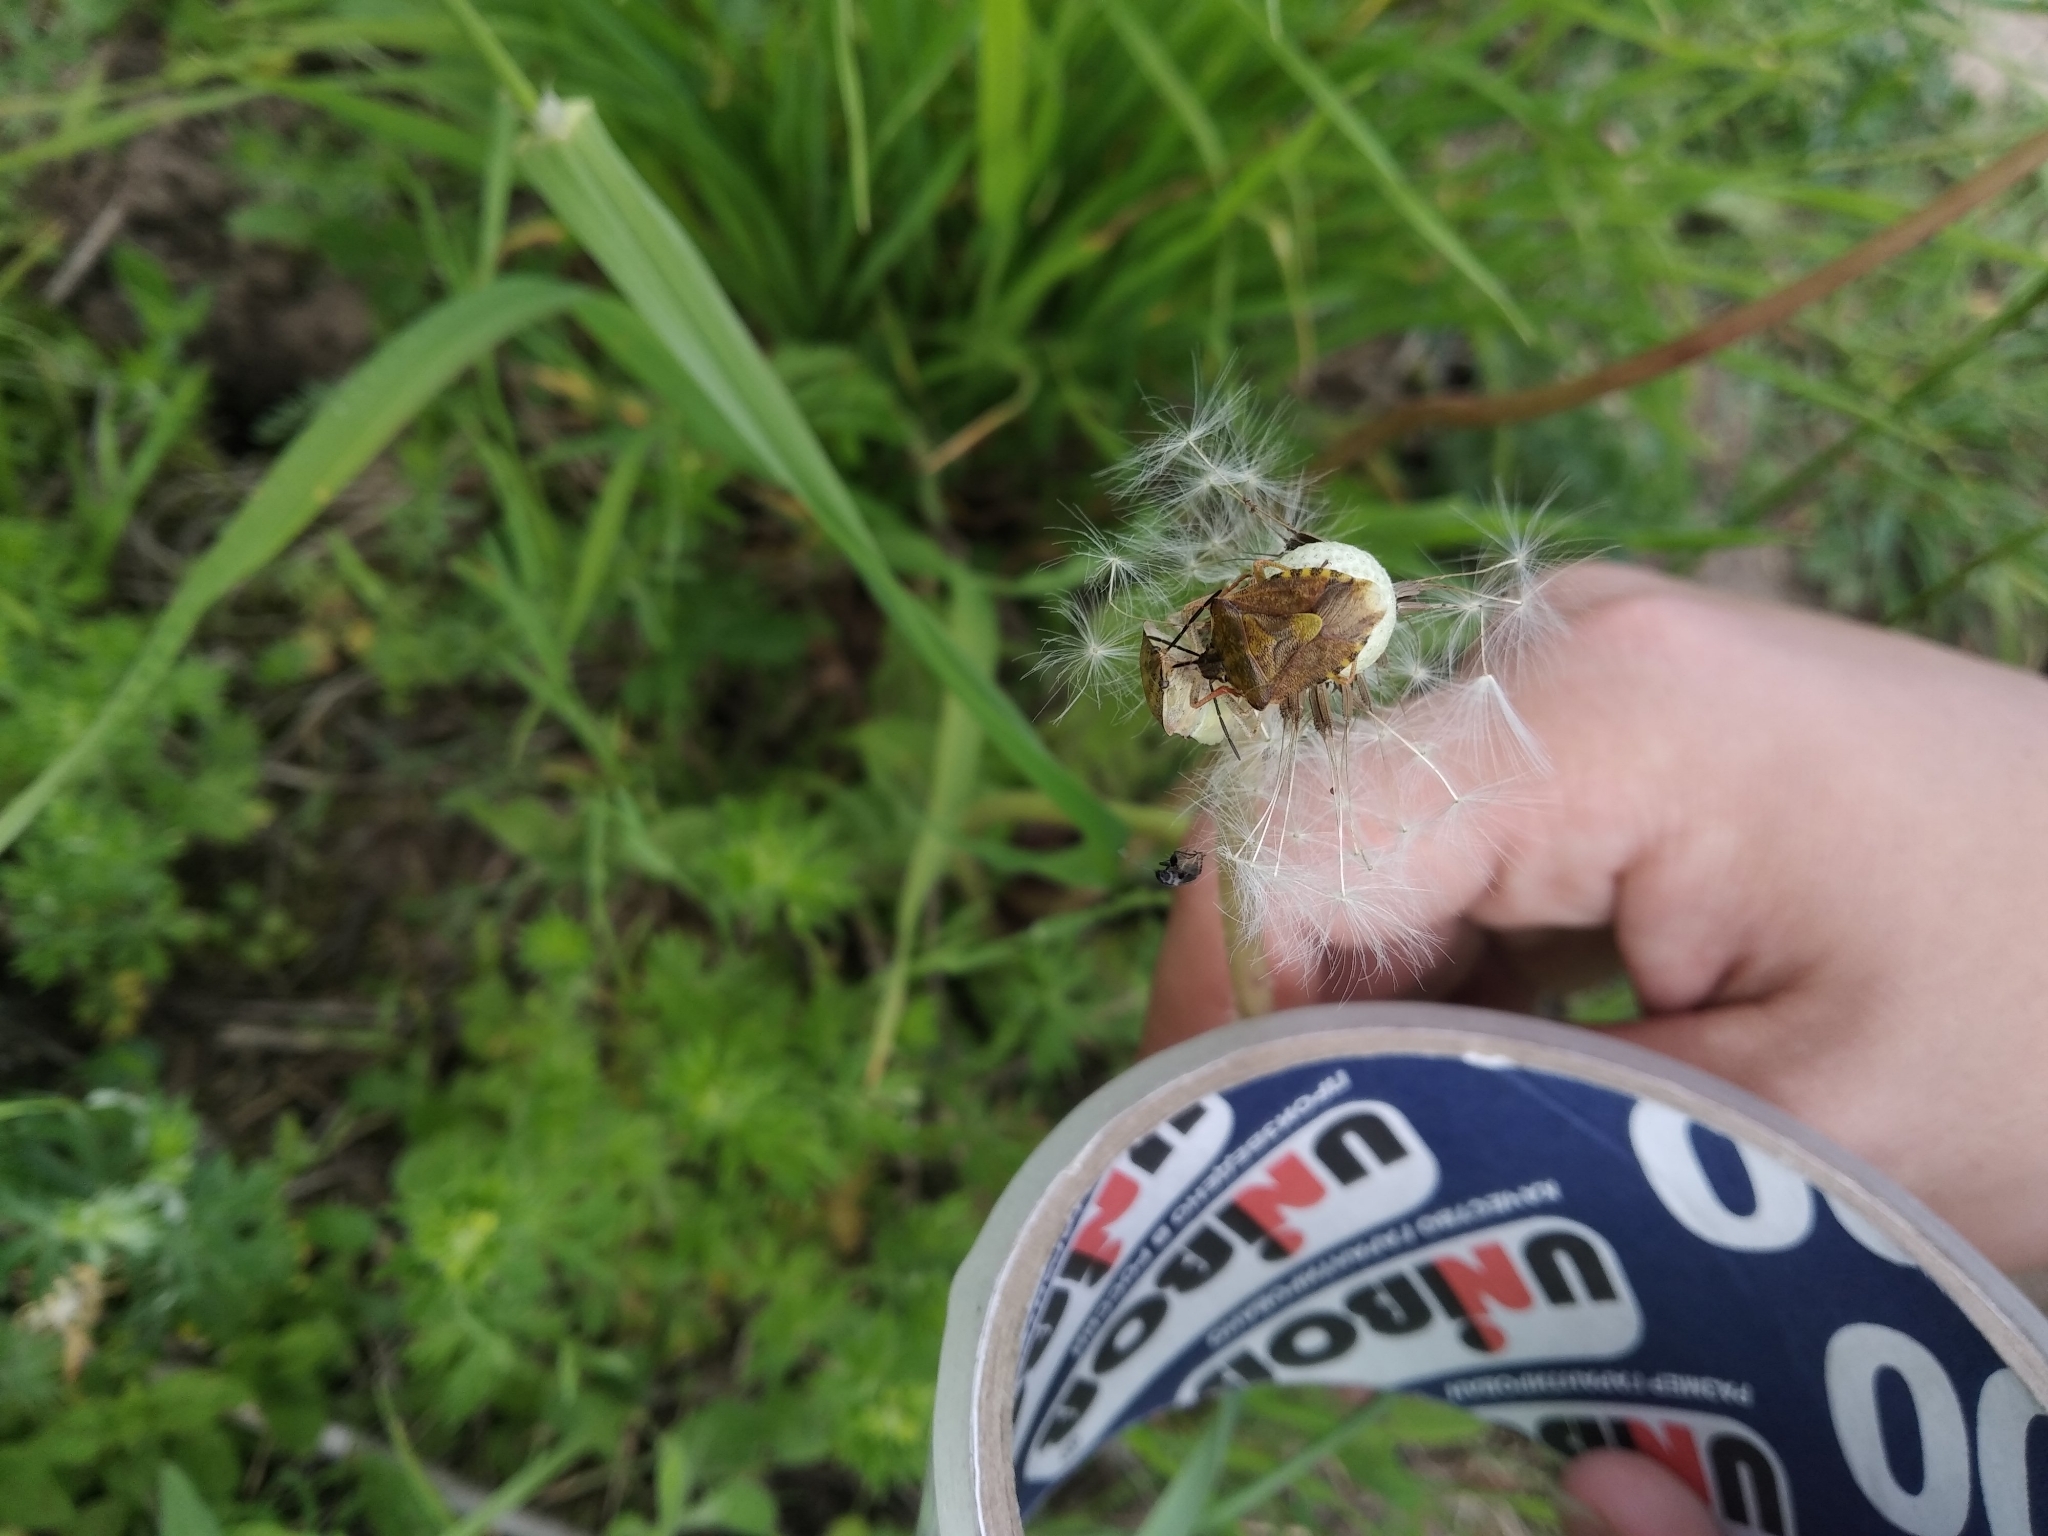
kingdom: Animalia
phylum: Arthropoda
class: Insecta
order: Hemiptera
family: Pentatomidae
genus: Carpocoris
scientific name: Carpocoris purpureipennis
